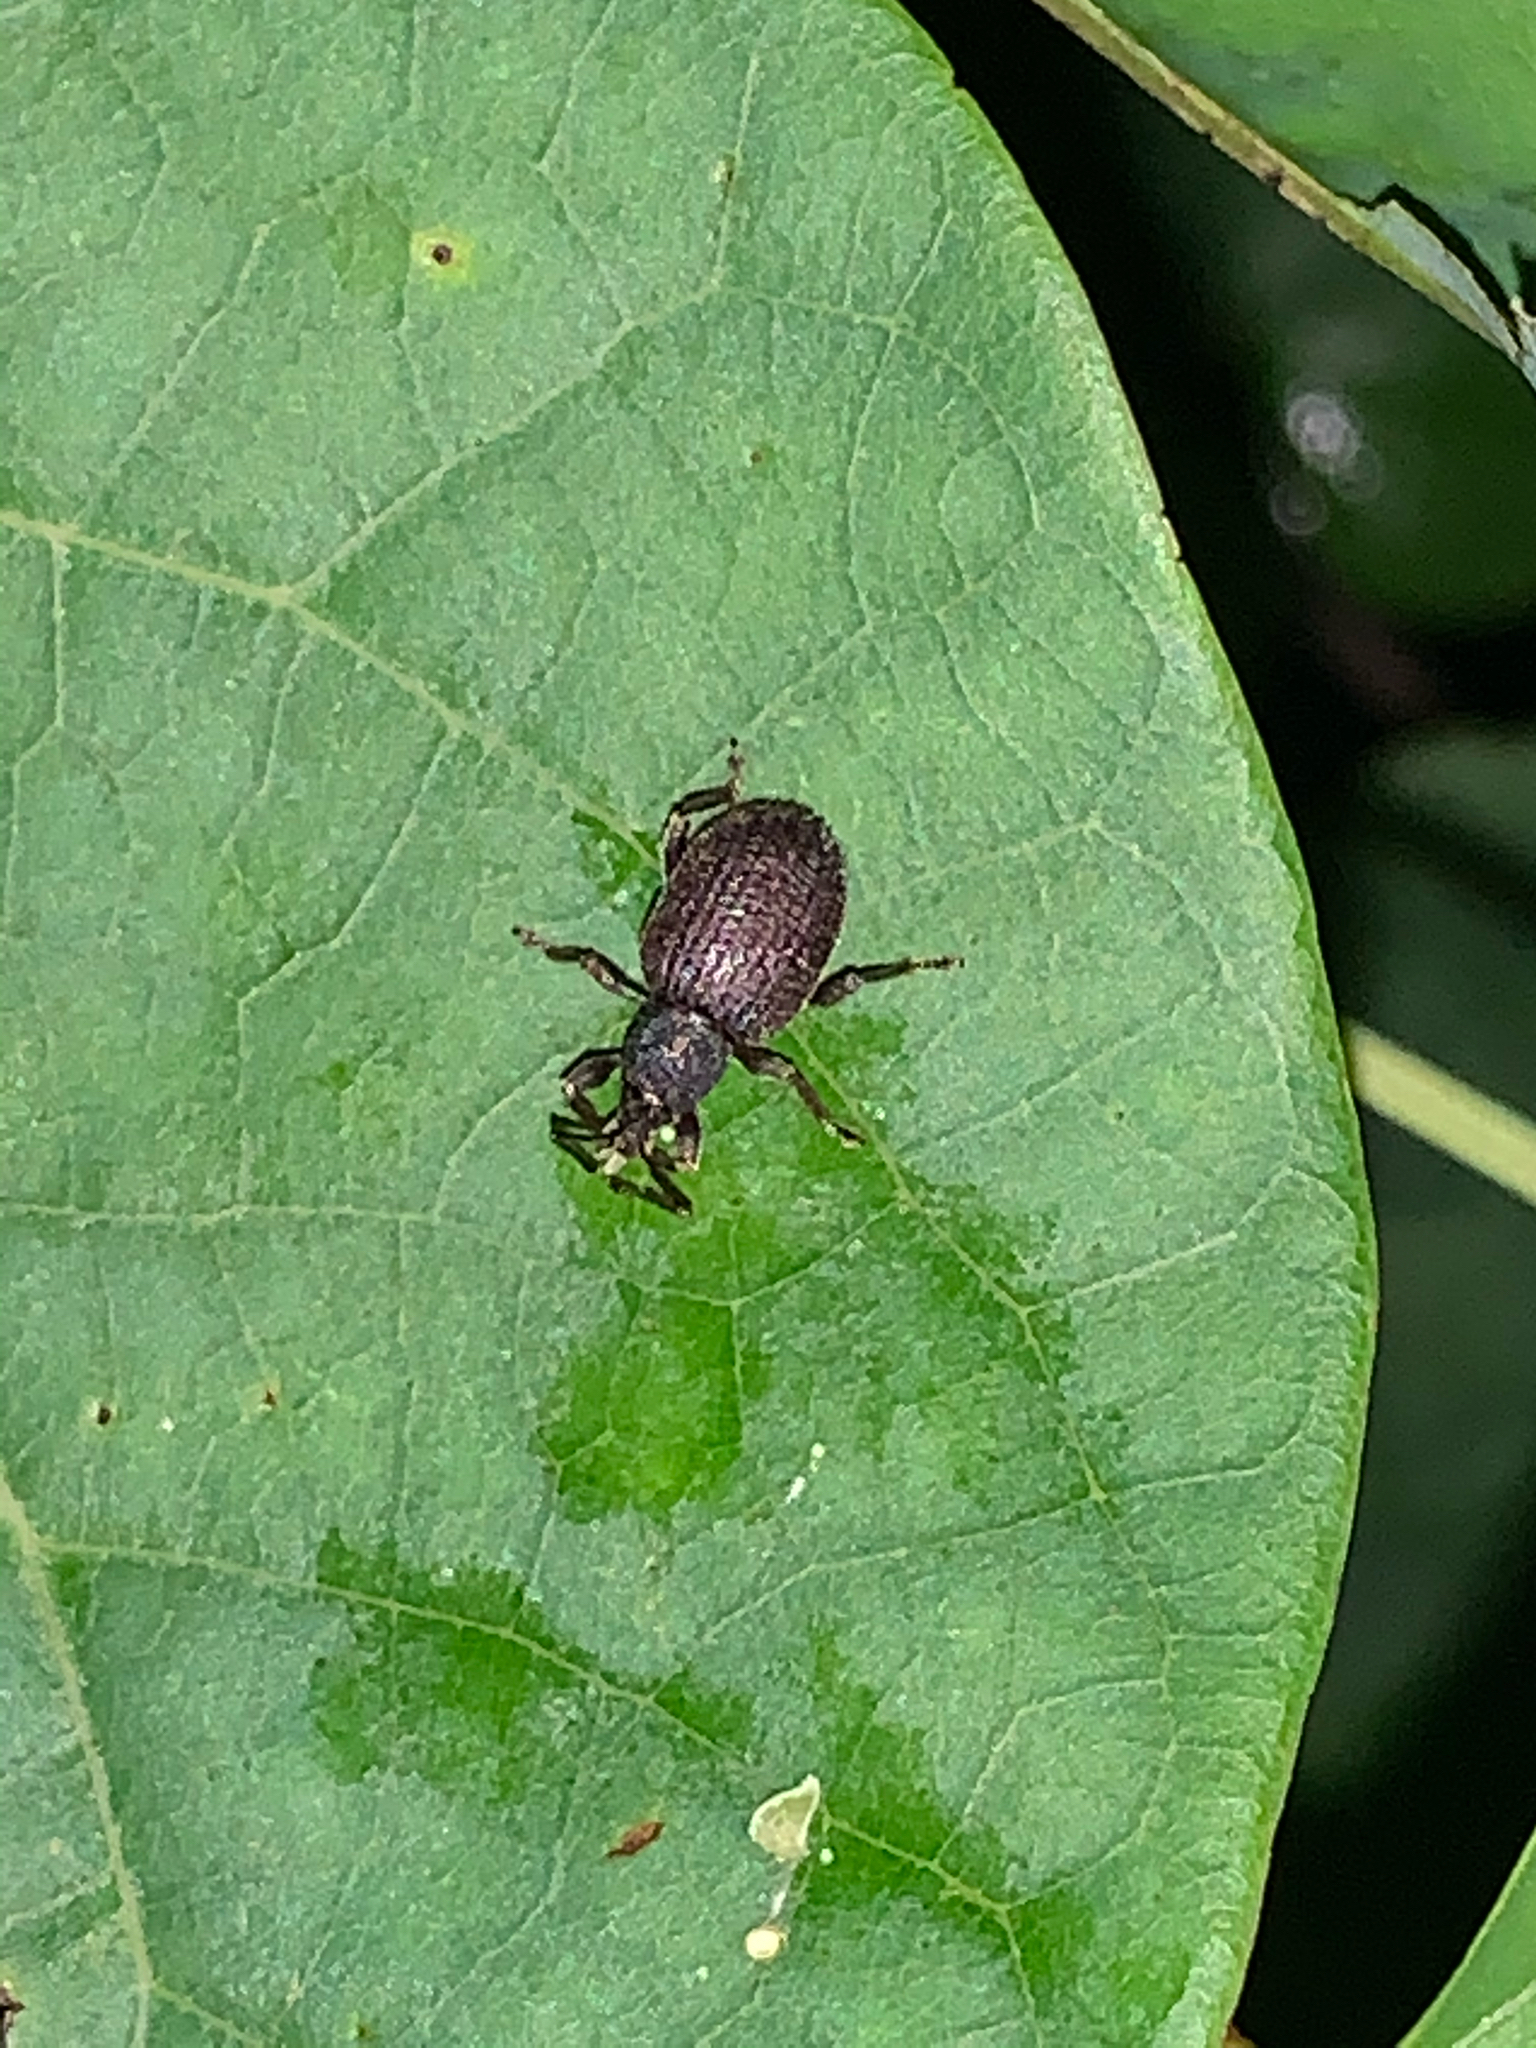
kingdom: Animalia
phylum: Arthropoda
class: Insecta
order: Coleoptera
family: Curculionidae
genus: Otiorhynchus
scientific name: Otiorhynchus rugosostriatus
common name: Weevil
